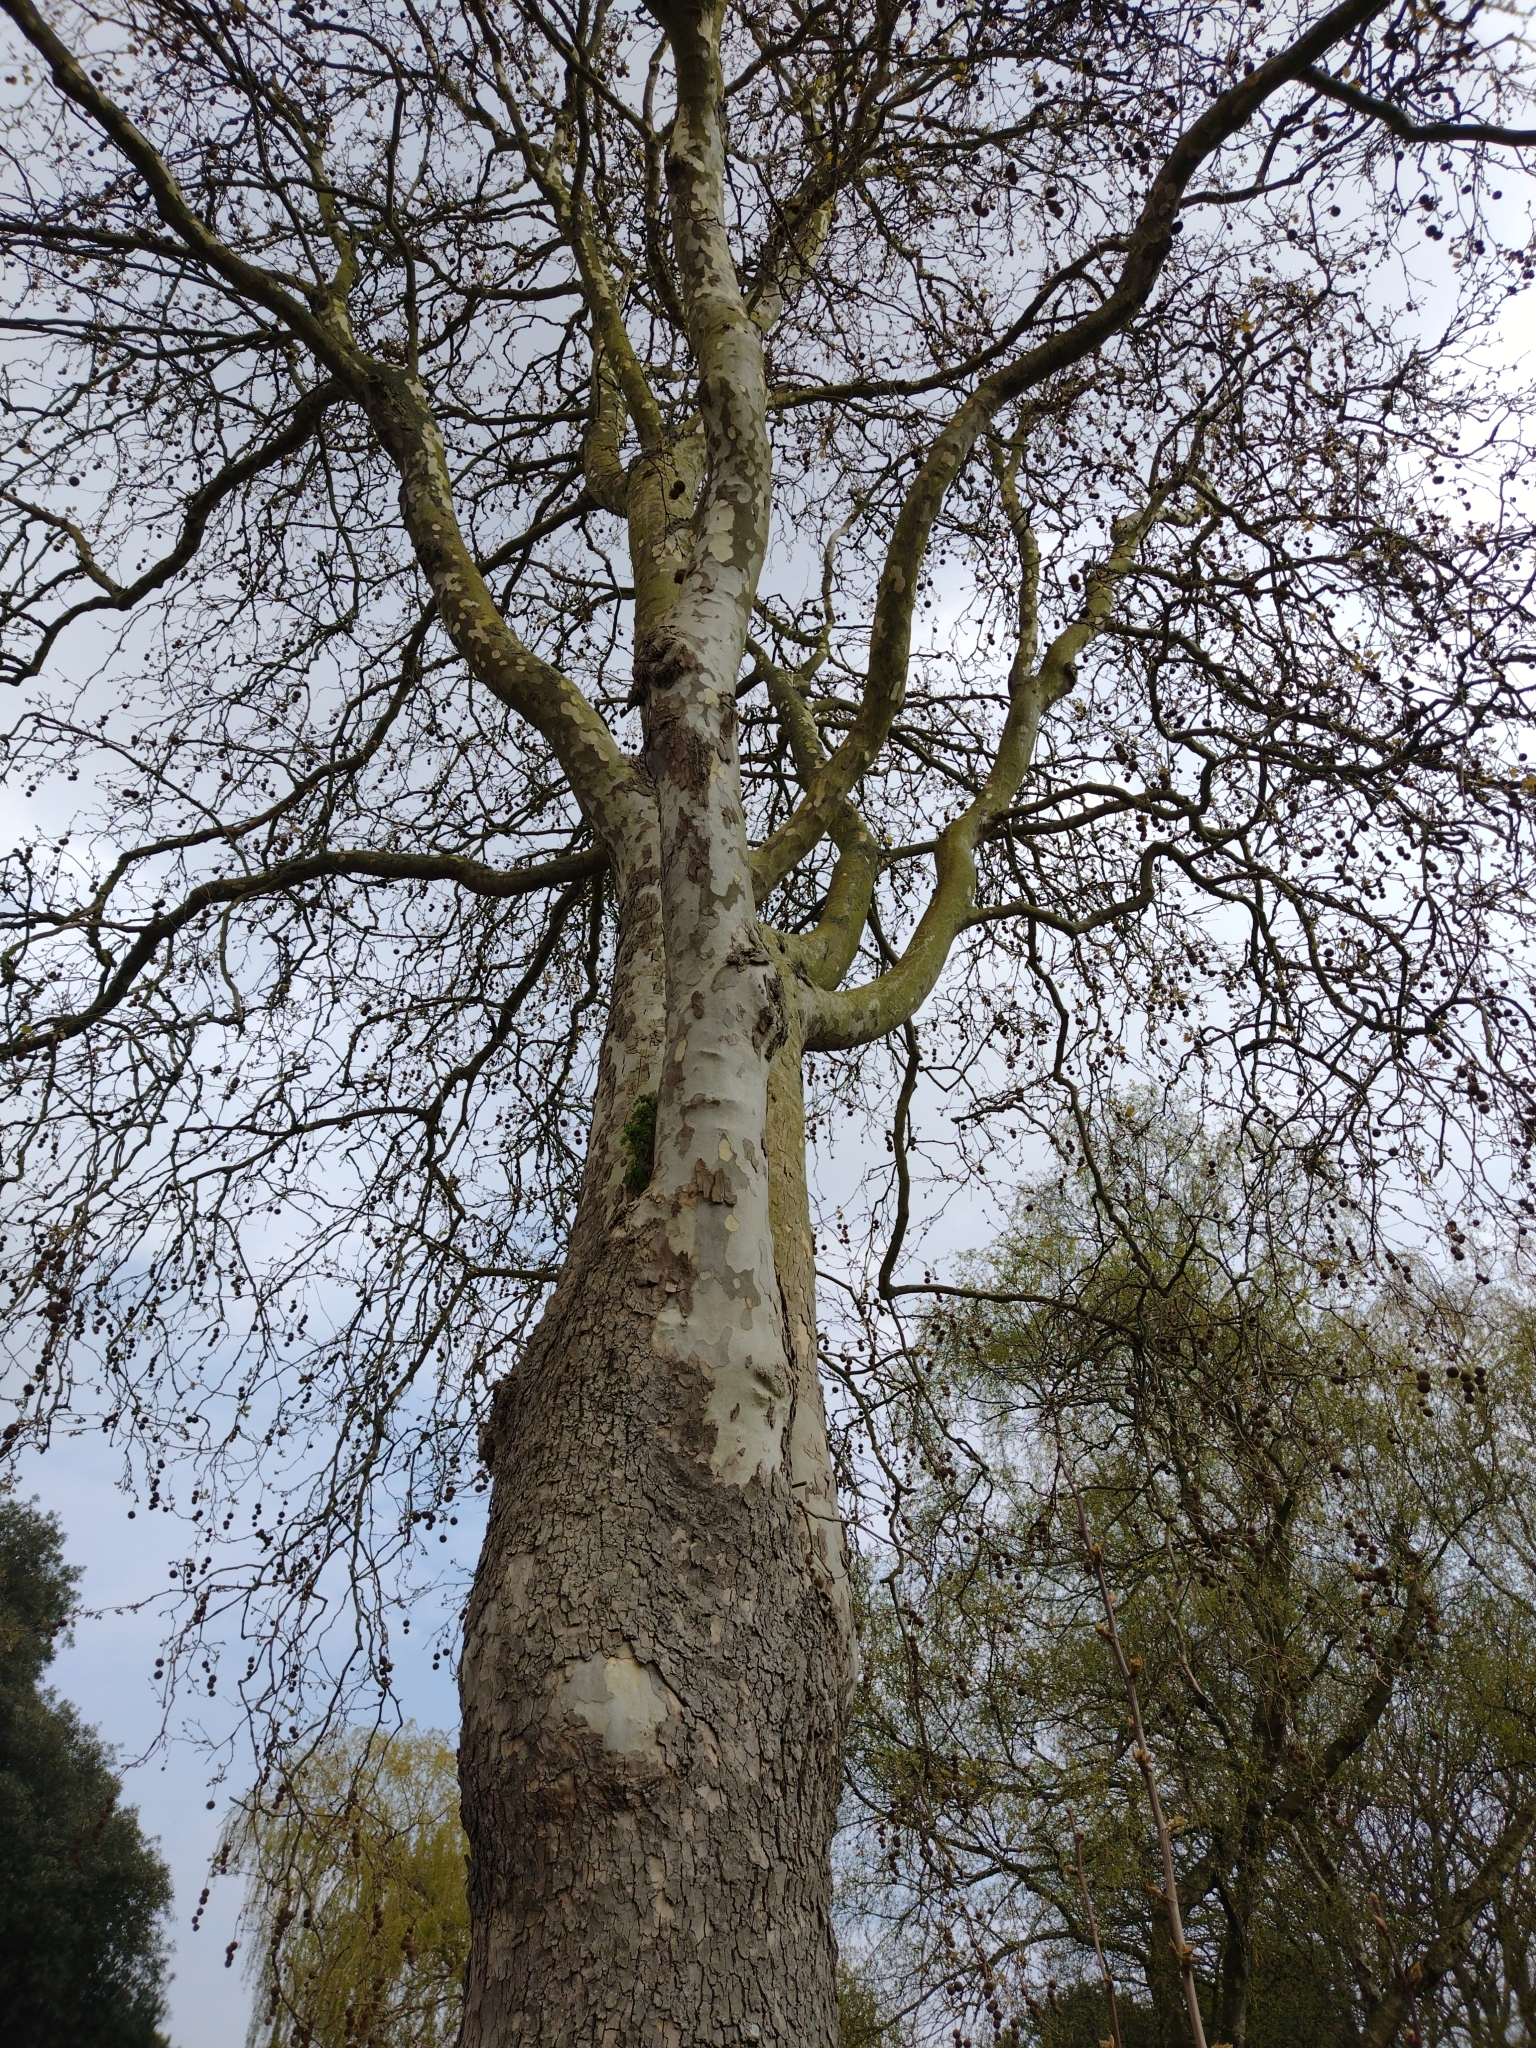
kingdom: Plantae
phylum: Tracheophyta
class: Magnoliopsida
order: Proteales
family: Platanaceae
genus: Platanus
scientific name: Platanus hispanica
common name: London plane
